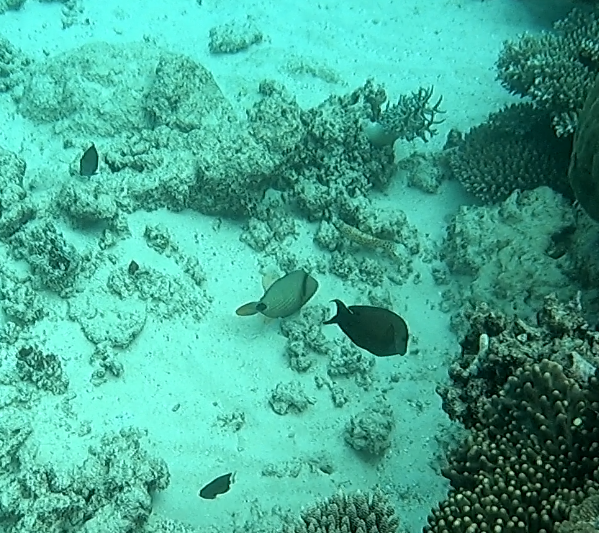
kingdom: Animalia
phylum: Chordata
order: Tetraodontiformes
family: Balistidae
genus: Balistapus
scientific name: Balistapus undulatus
